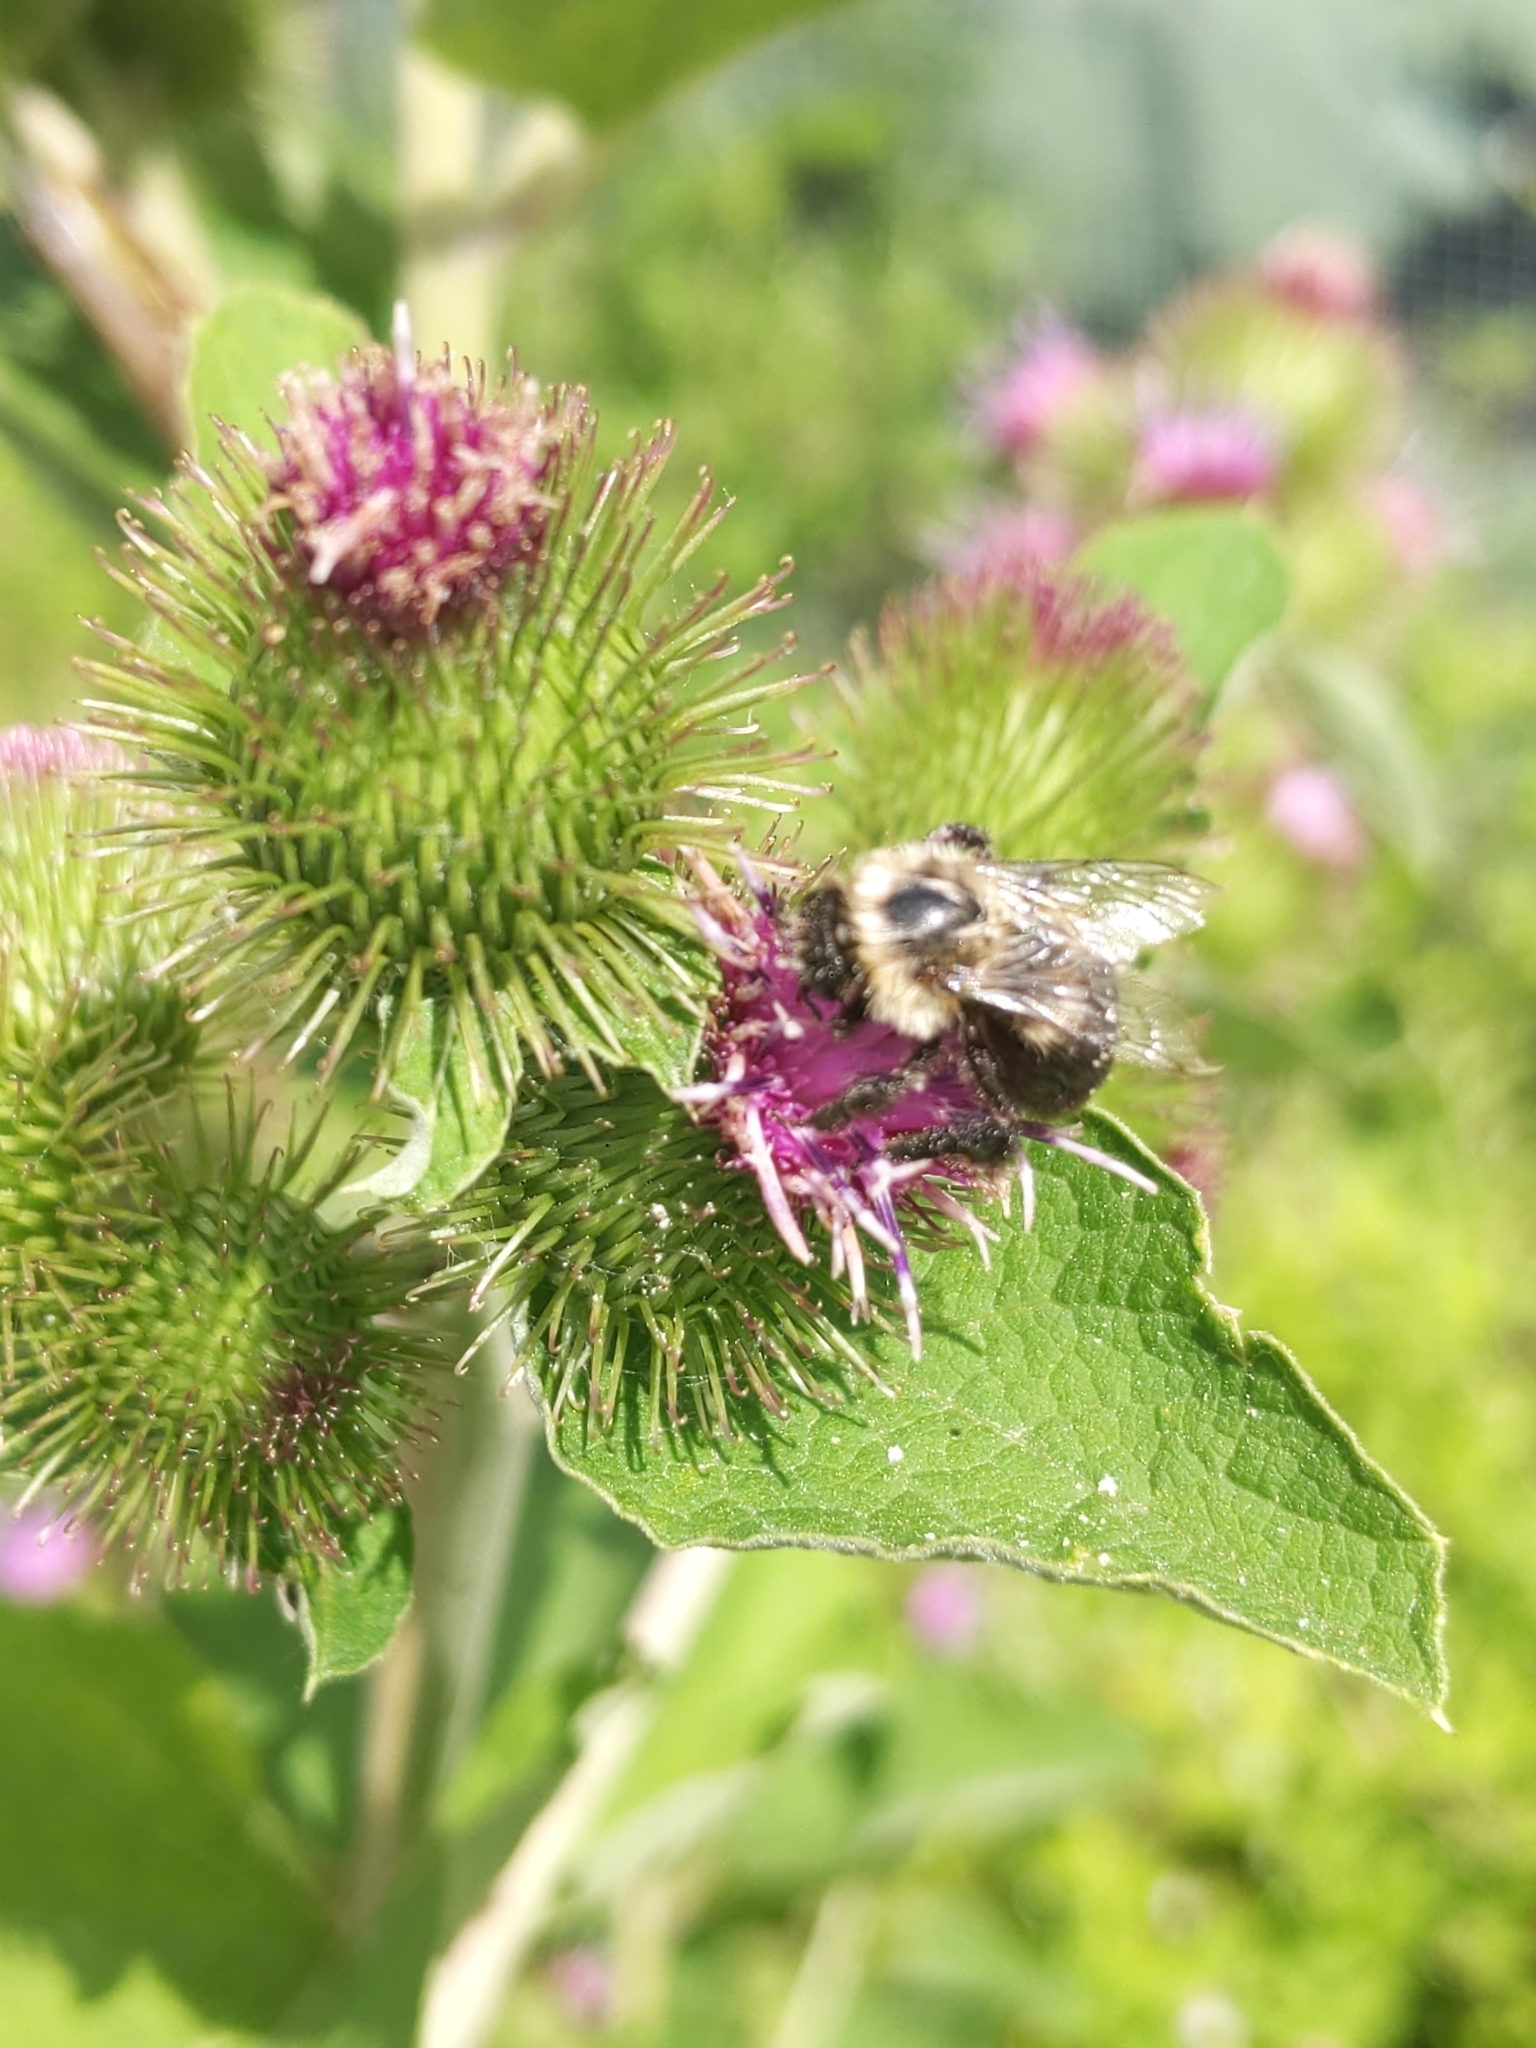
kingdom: Animalia
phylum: Arthropoda
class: Insecta
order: Hymenoptera
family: Apidae
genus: Bombus
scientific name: Bombus impatiens
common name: Common eastern bumble bee
